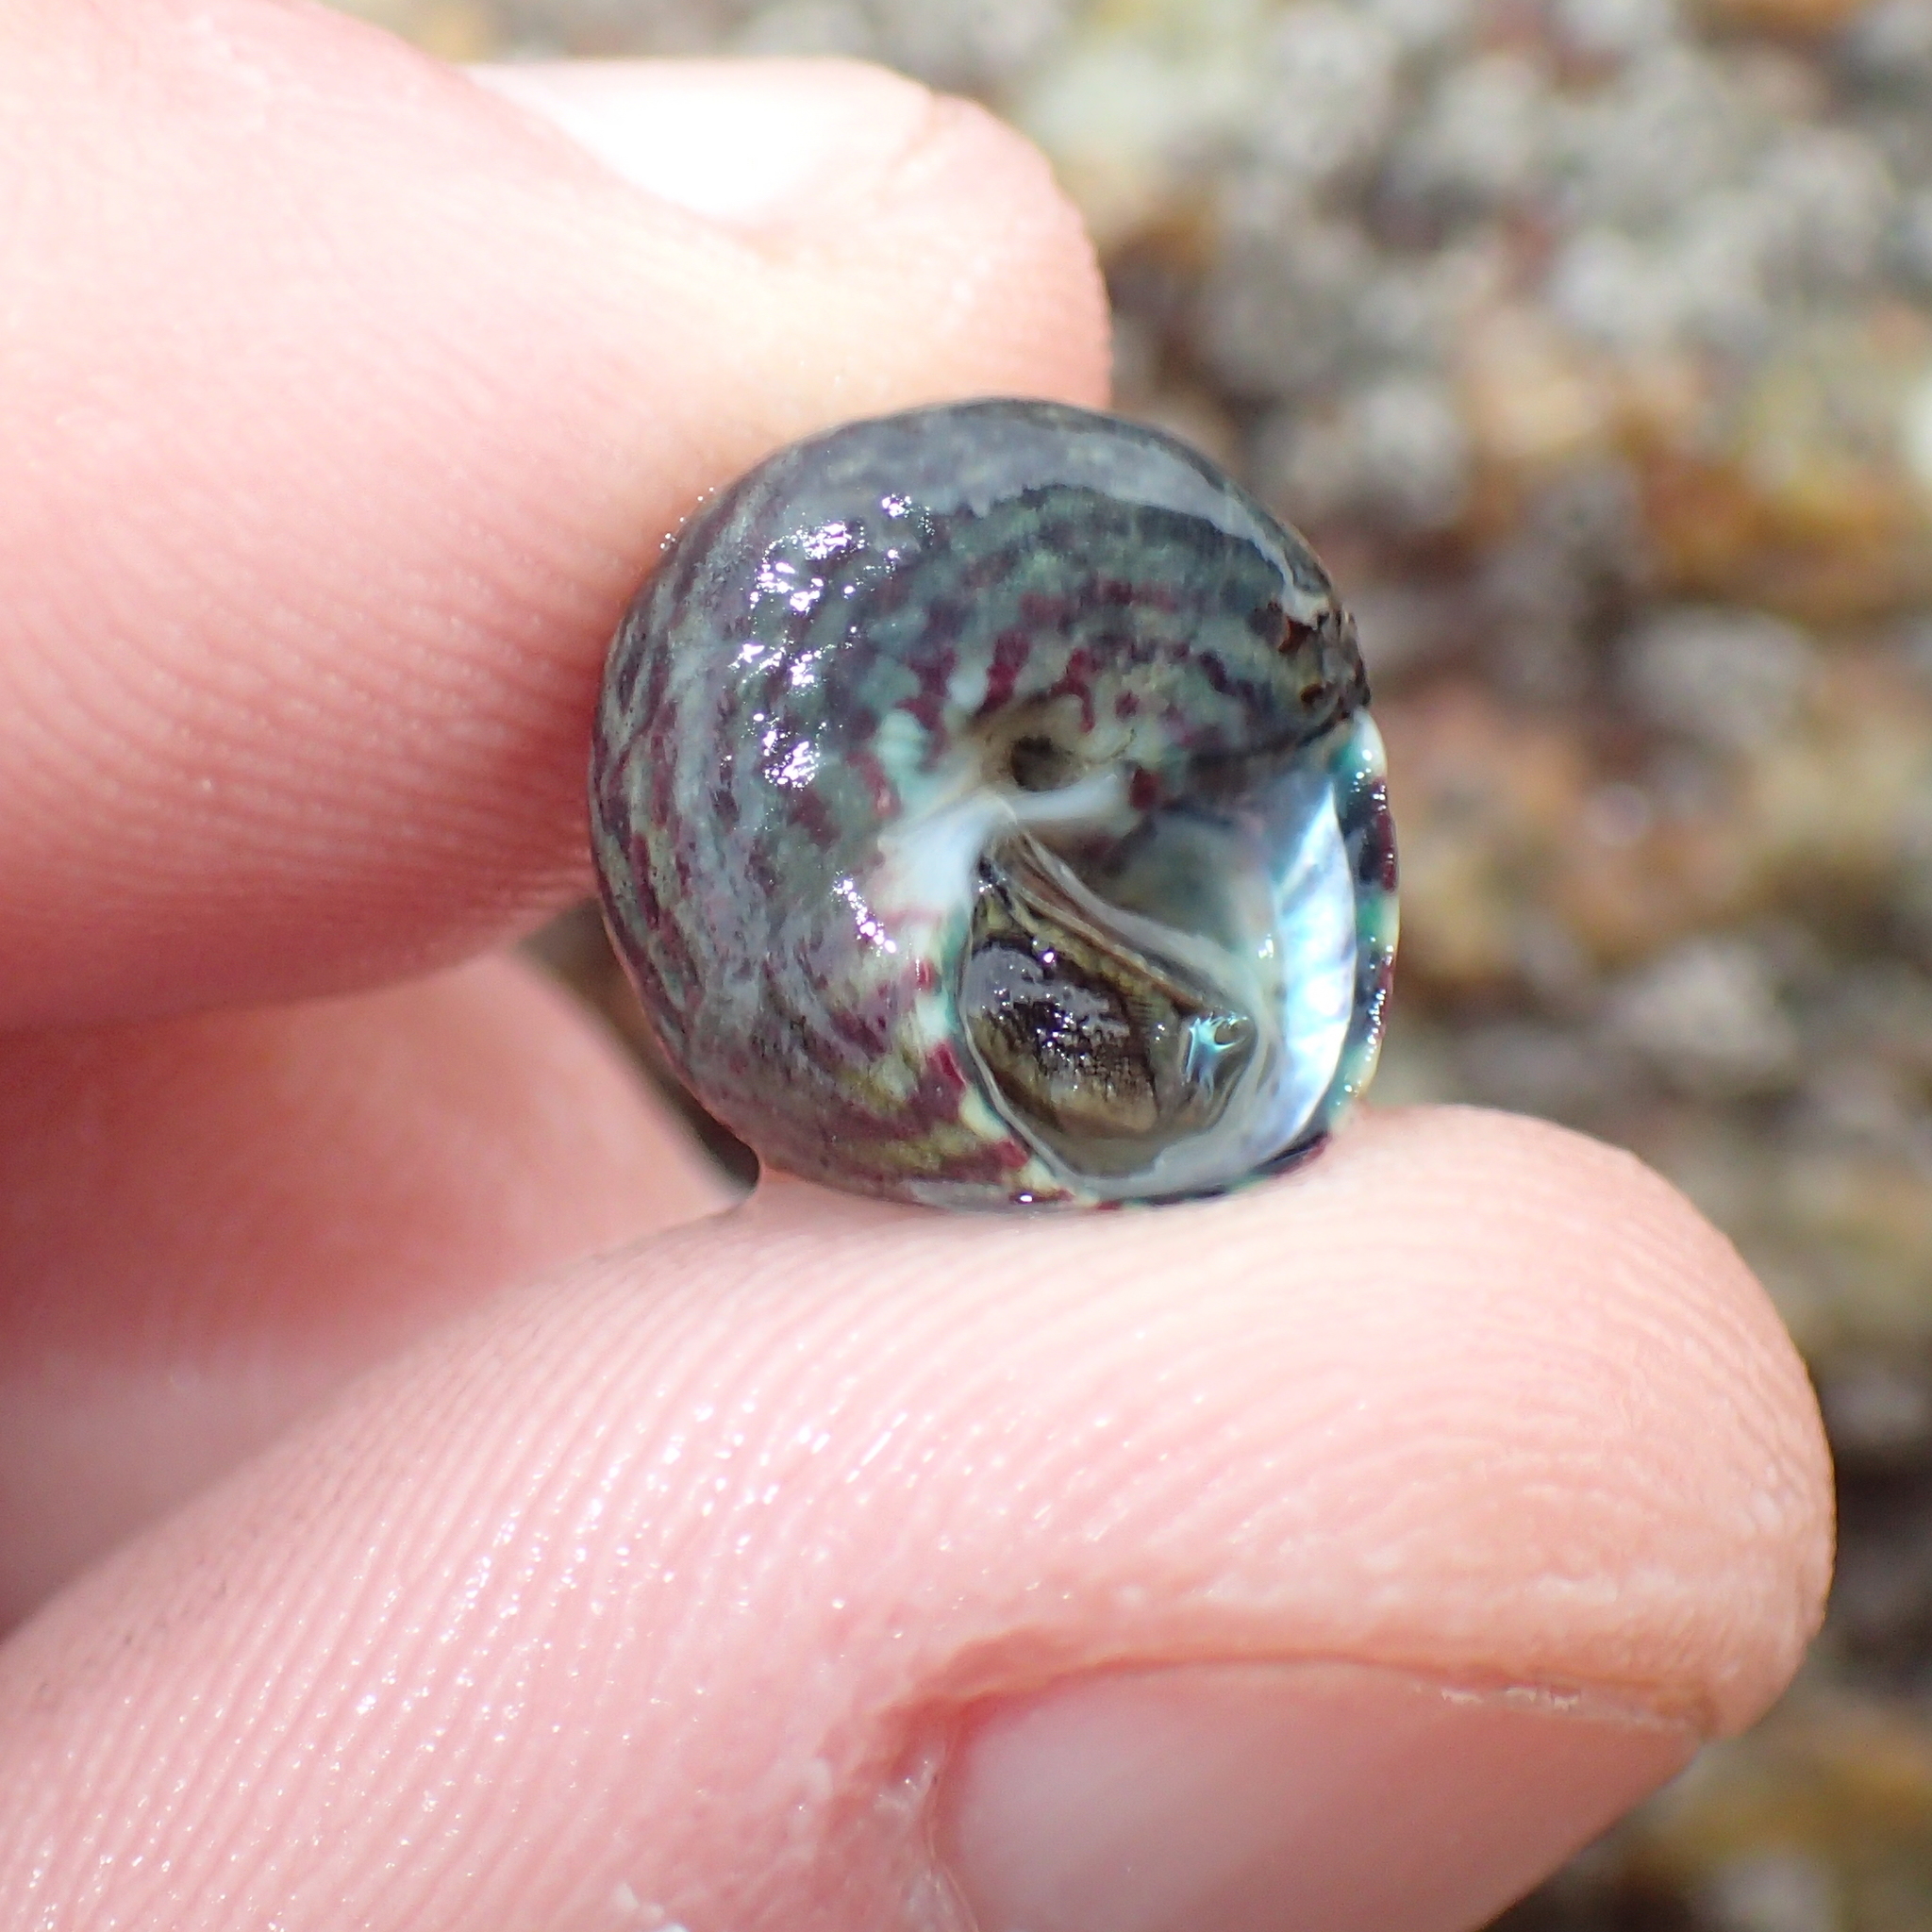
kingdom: Animalia
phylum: Mollusca
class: Gastropoda
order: Trochida
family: Trochidae
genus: Steromphala
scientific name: Steromphala umbilicalis
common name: Flat top shell
